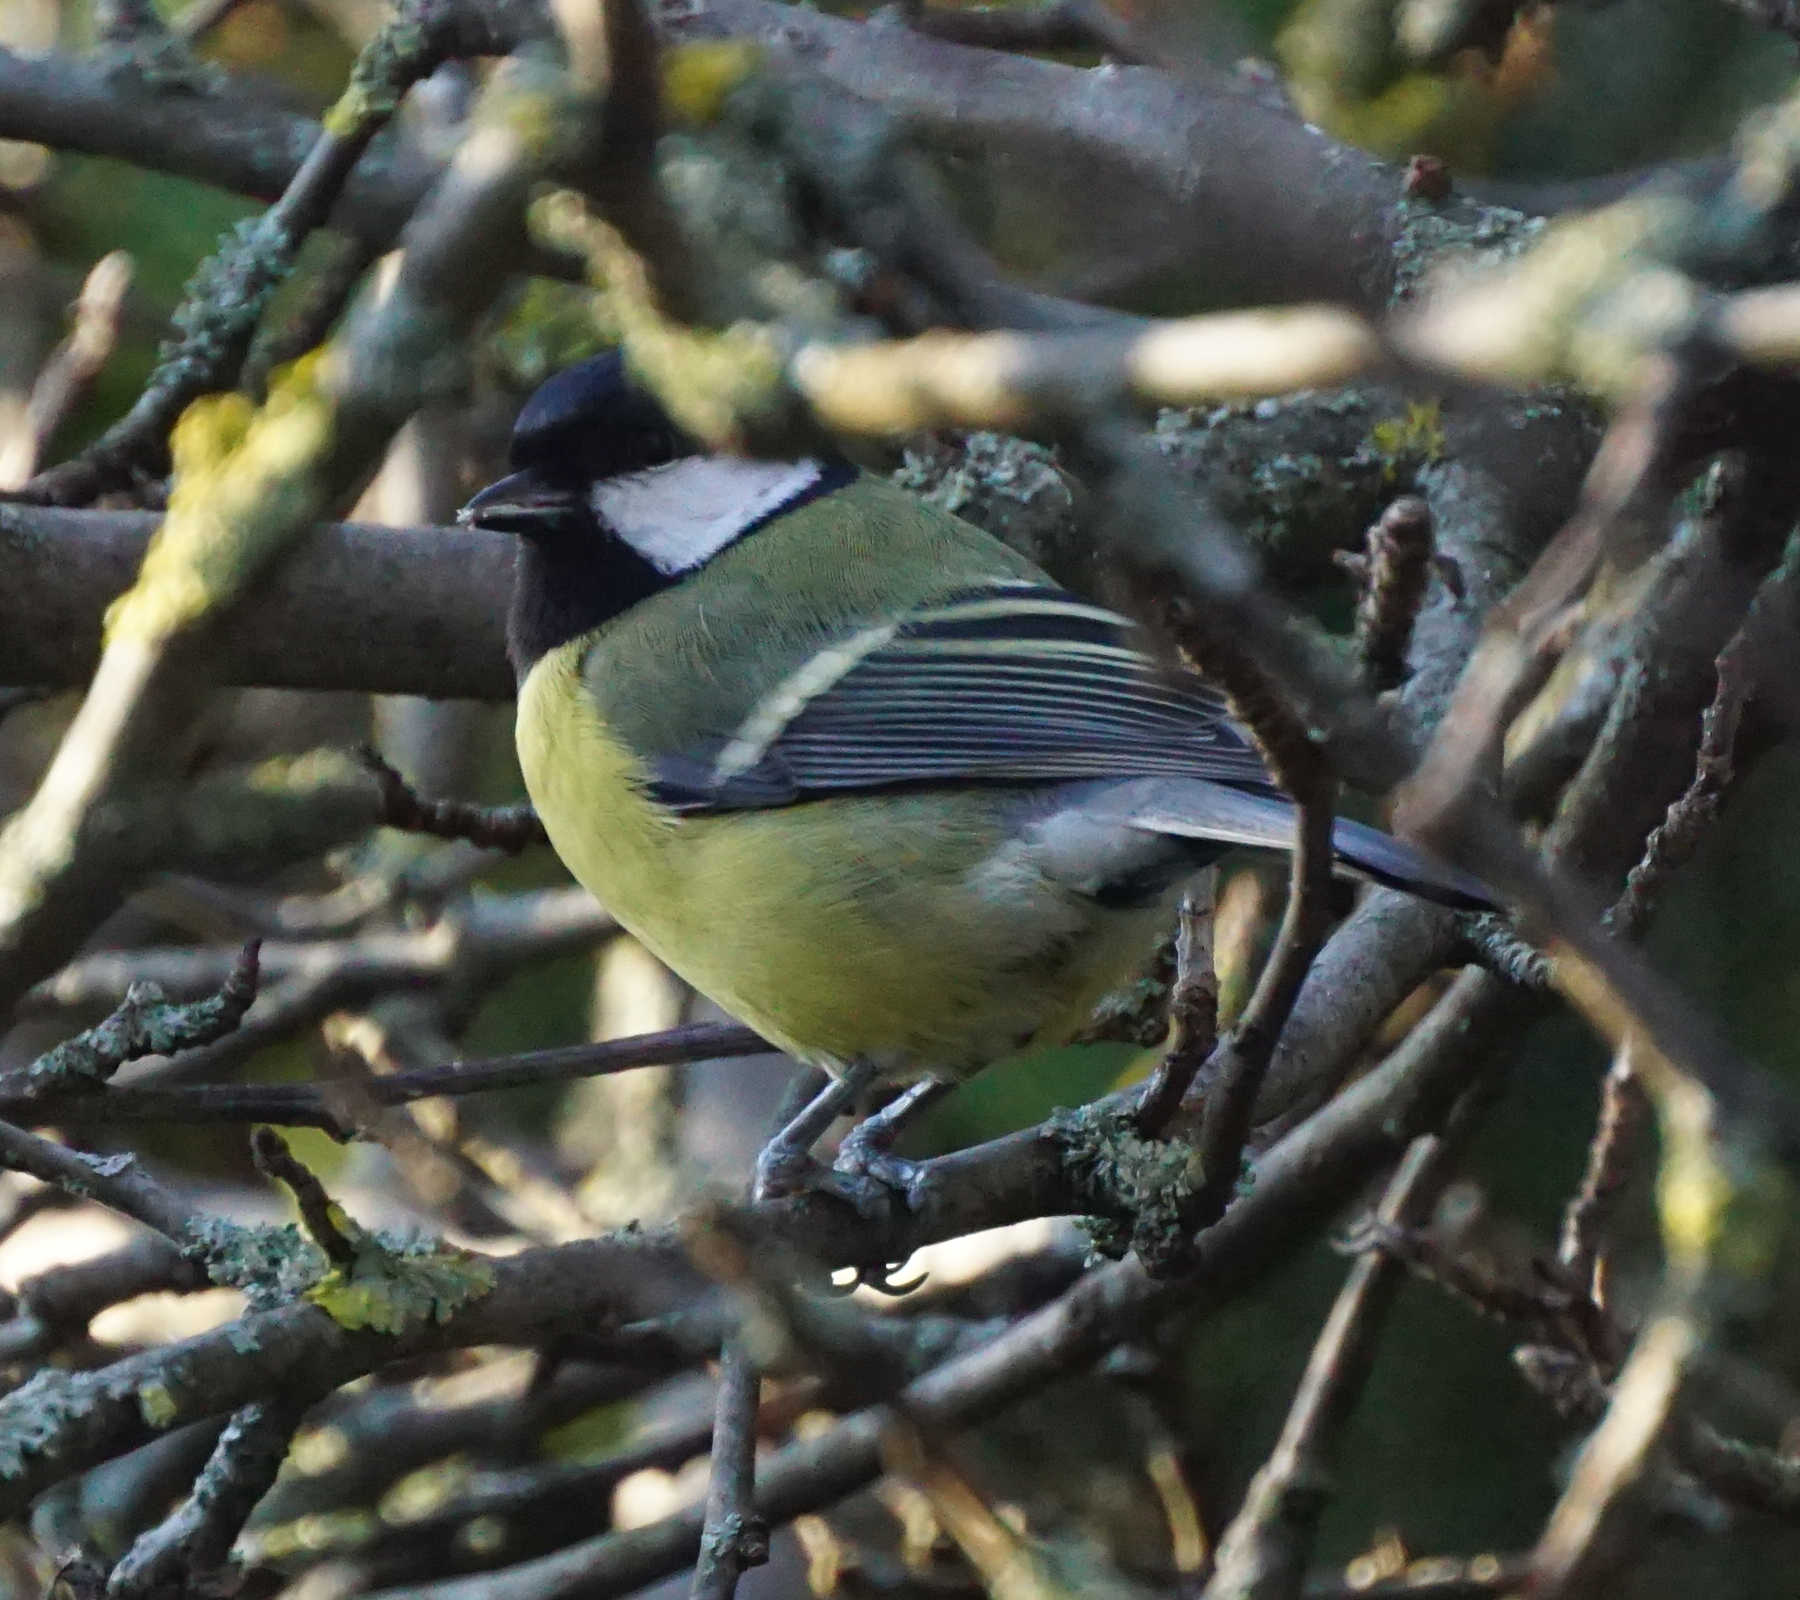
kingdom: Animalia
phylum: Chordata
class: Aves
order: Passeriformes
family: Paridae
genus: Parus
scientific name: Parus major
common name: Great tit
